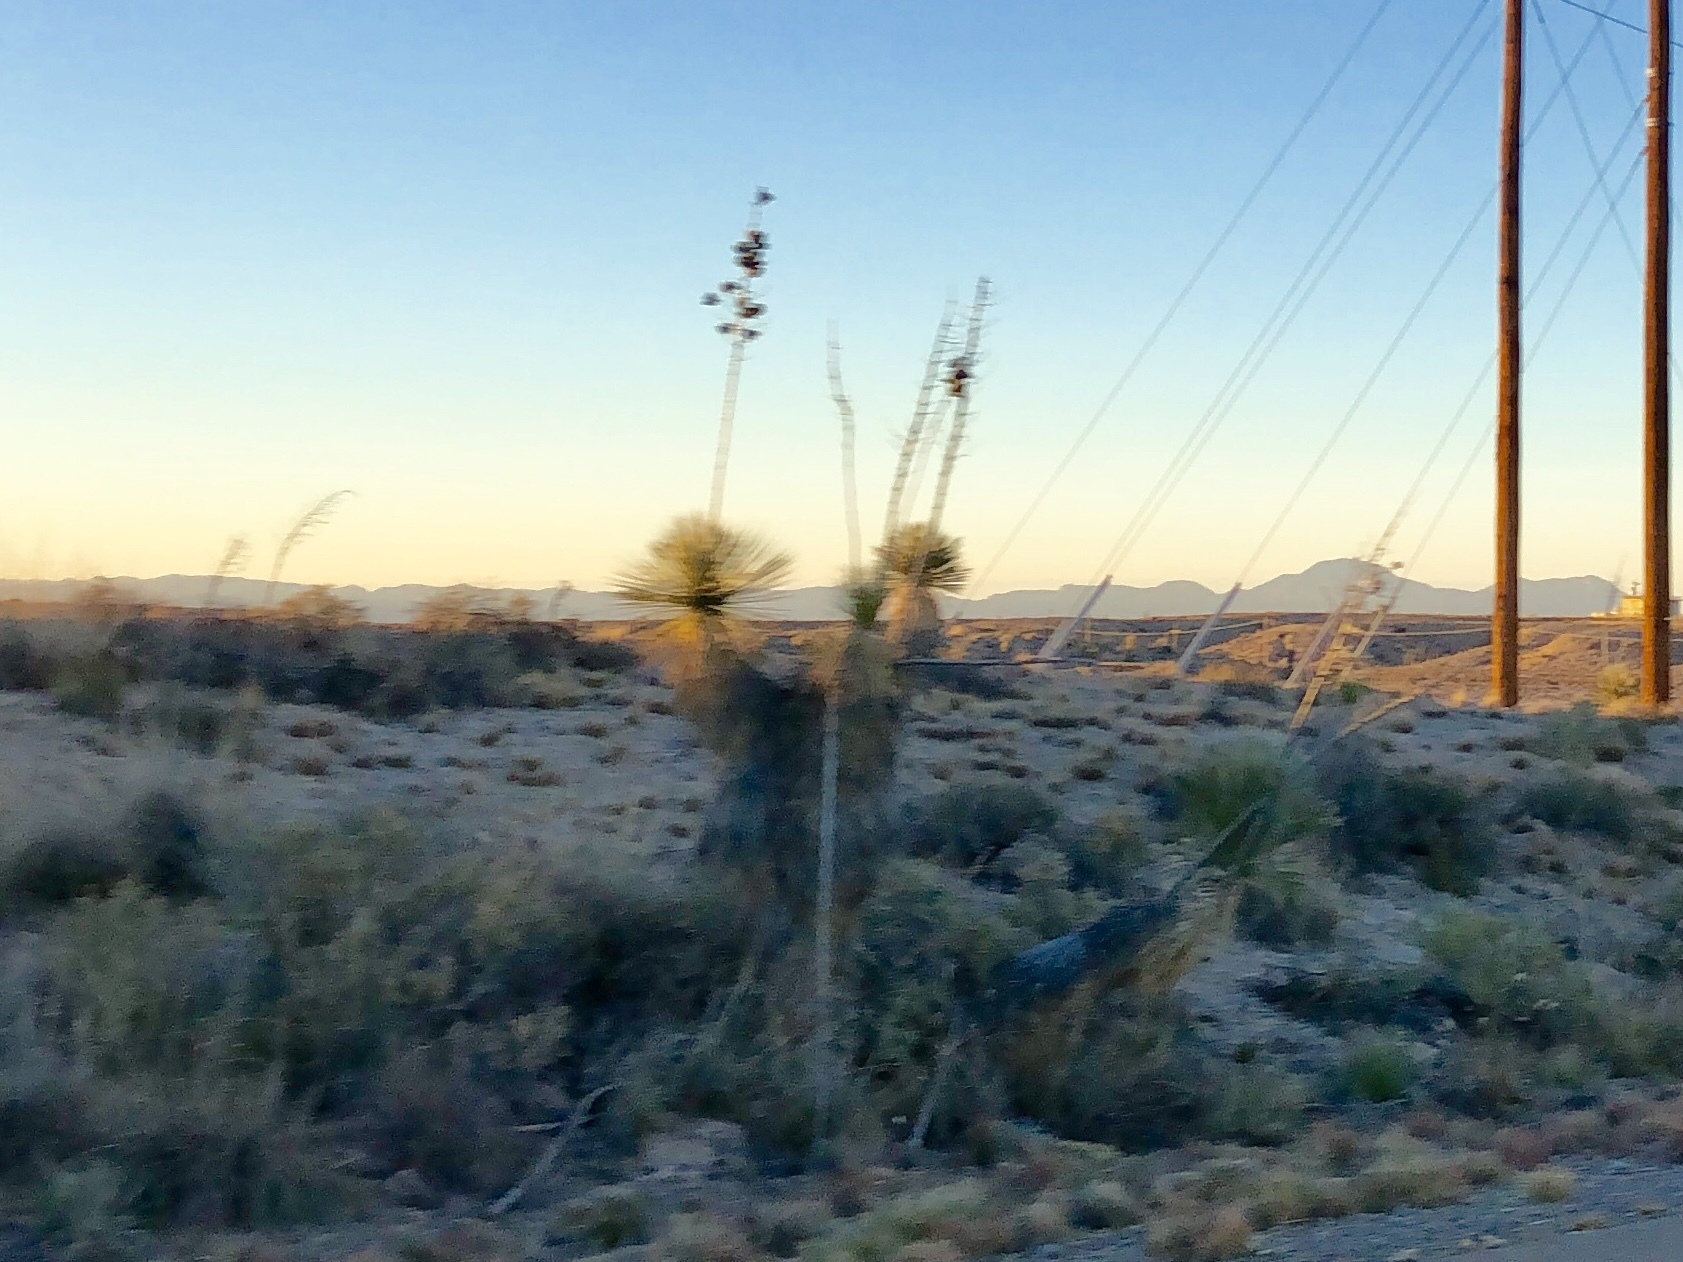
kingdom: Plantae
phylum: Tracheophyta
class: Liliopsida
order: Asparagales
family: Asparagaceae
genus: Yucca
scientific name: Yucca elata
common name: Palmella
